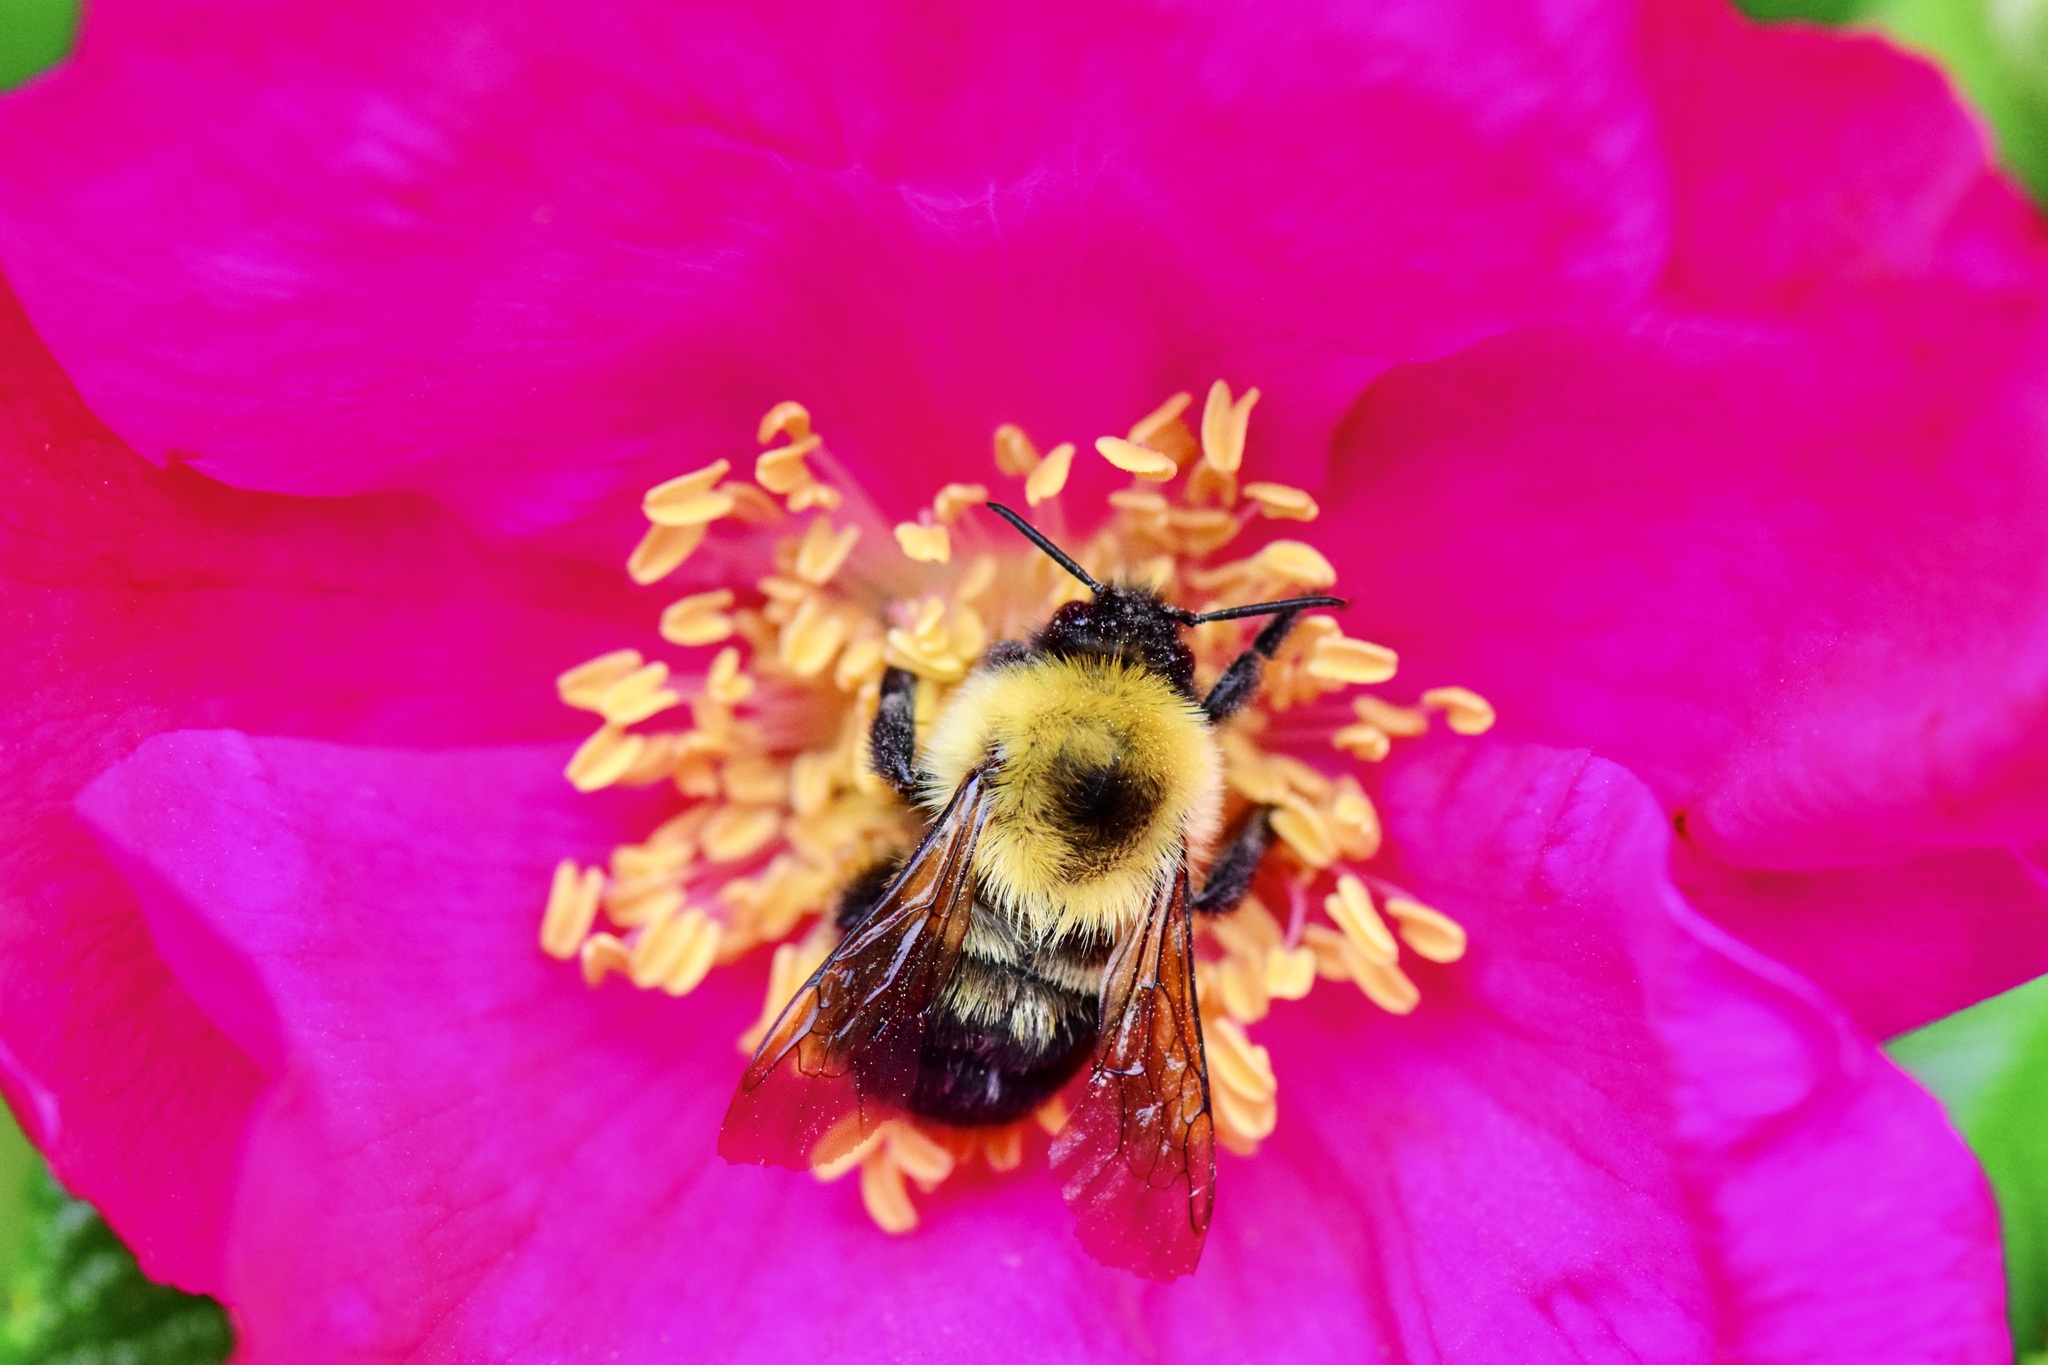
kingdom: Animalia
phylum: Arthropoda
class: Insecta
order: Hymenoptera
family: Apidae
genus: Bombus
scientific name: Bombus bimaculatus
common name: Two-spotted bumble bee
